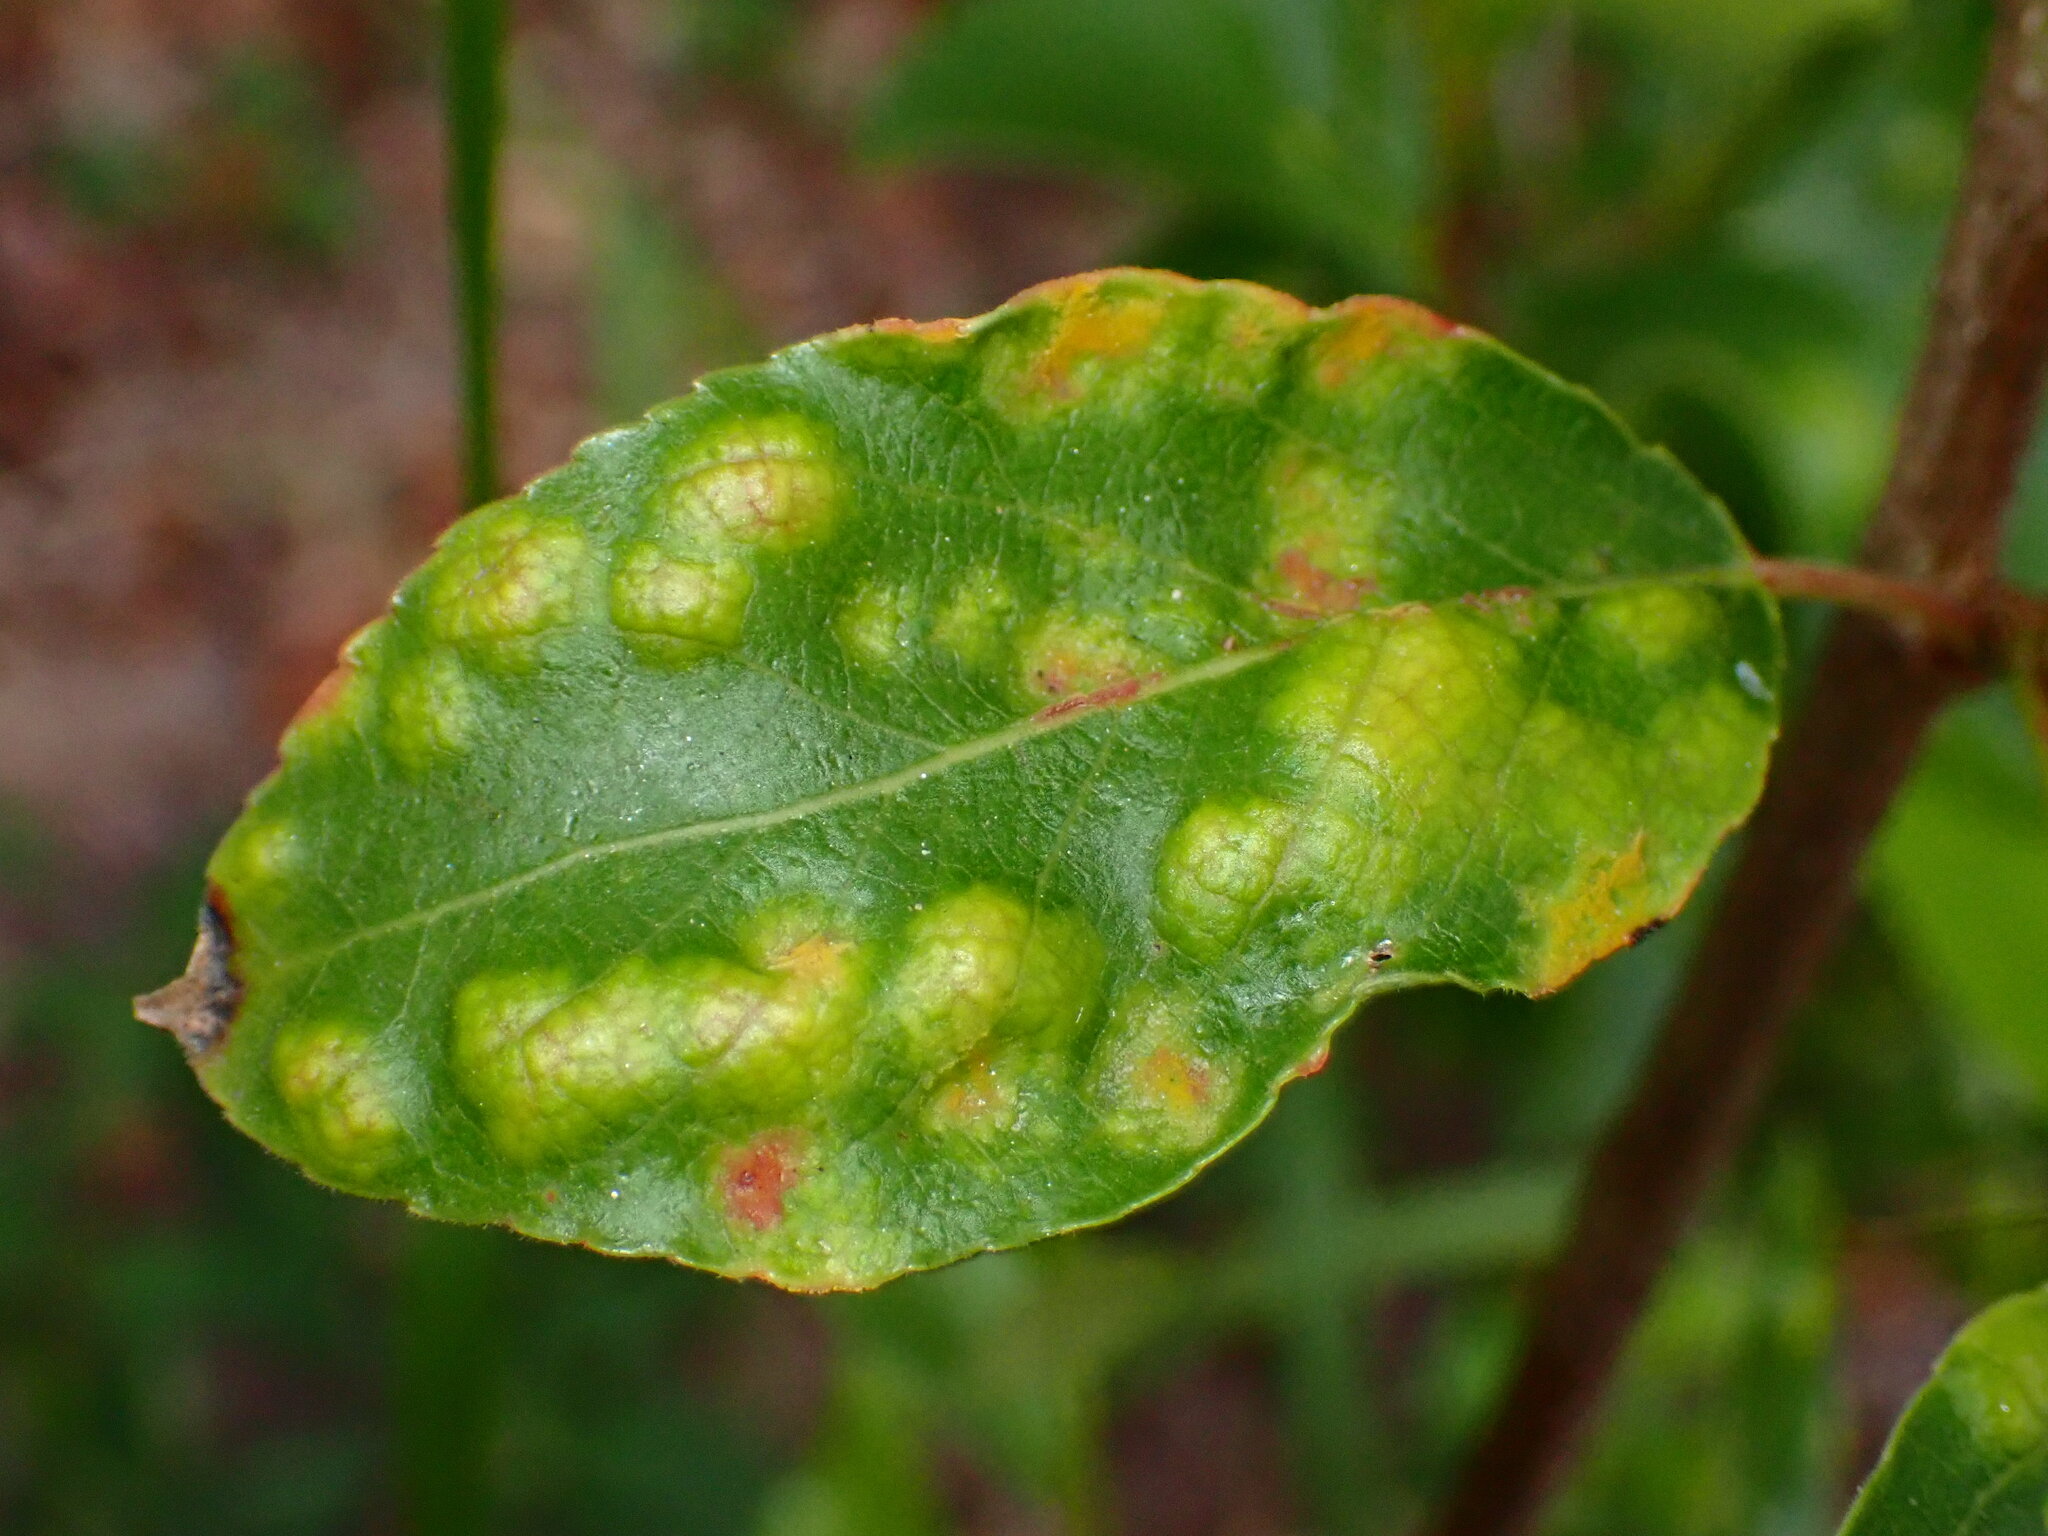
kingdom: Fungi
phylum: Ascomycota
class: Taphrinomycetes
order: Taphrinales
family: Taphrinaceae
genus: Taphrina
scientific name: Taphrina populi-salicis
